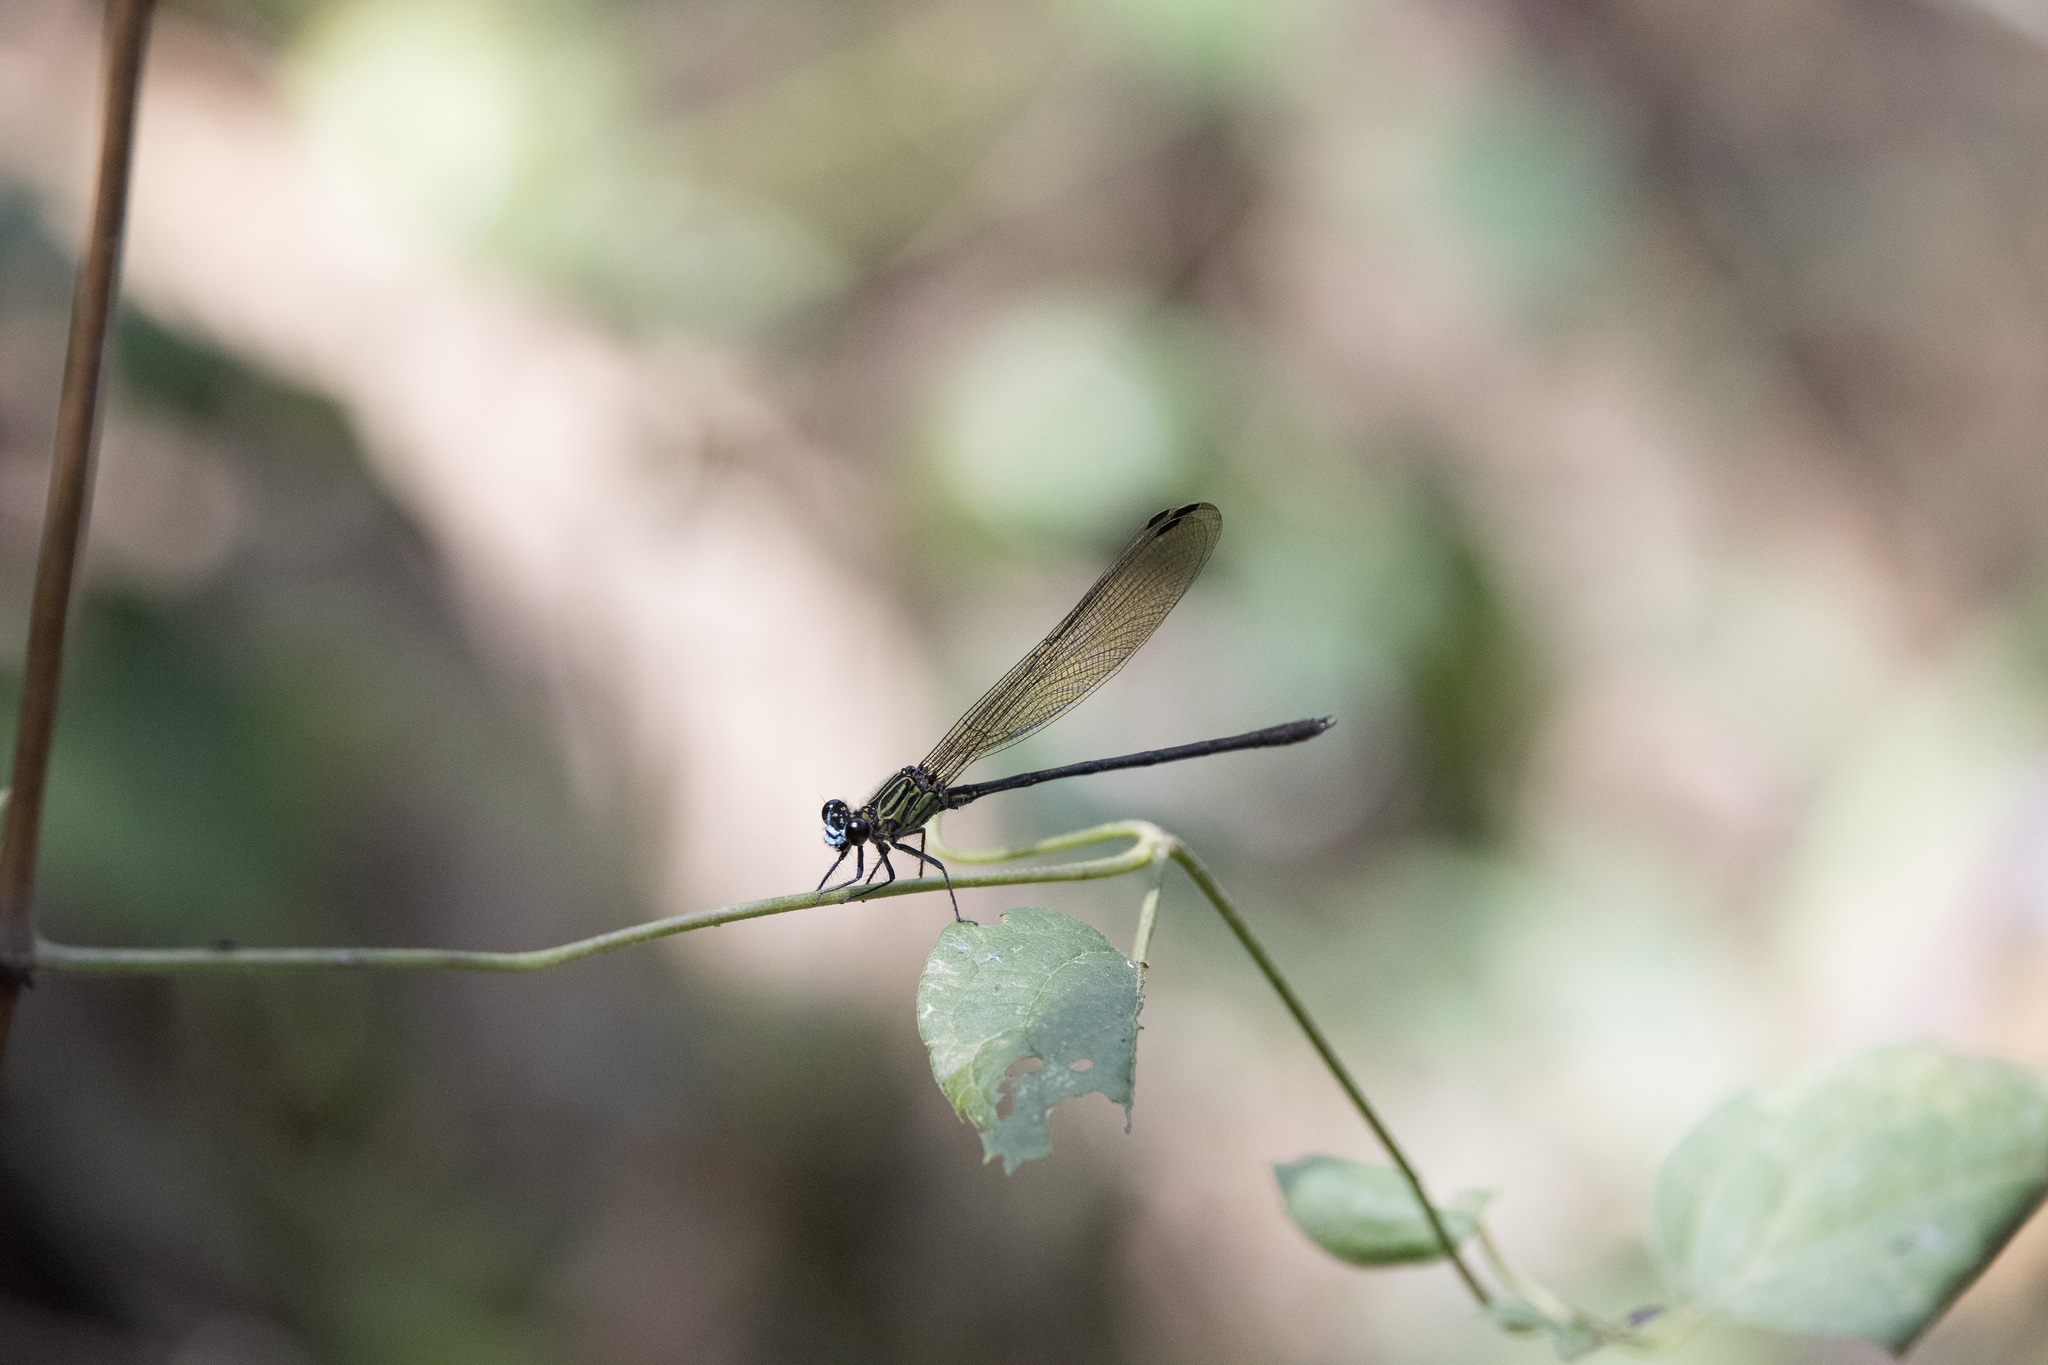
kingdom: Animalia
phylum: Arthropoda
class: Insecta
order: Odonata
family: Polythoridae
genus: Euthore
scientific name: Euthore terminalis
